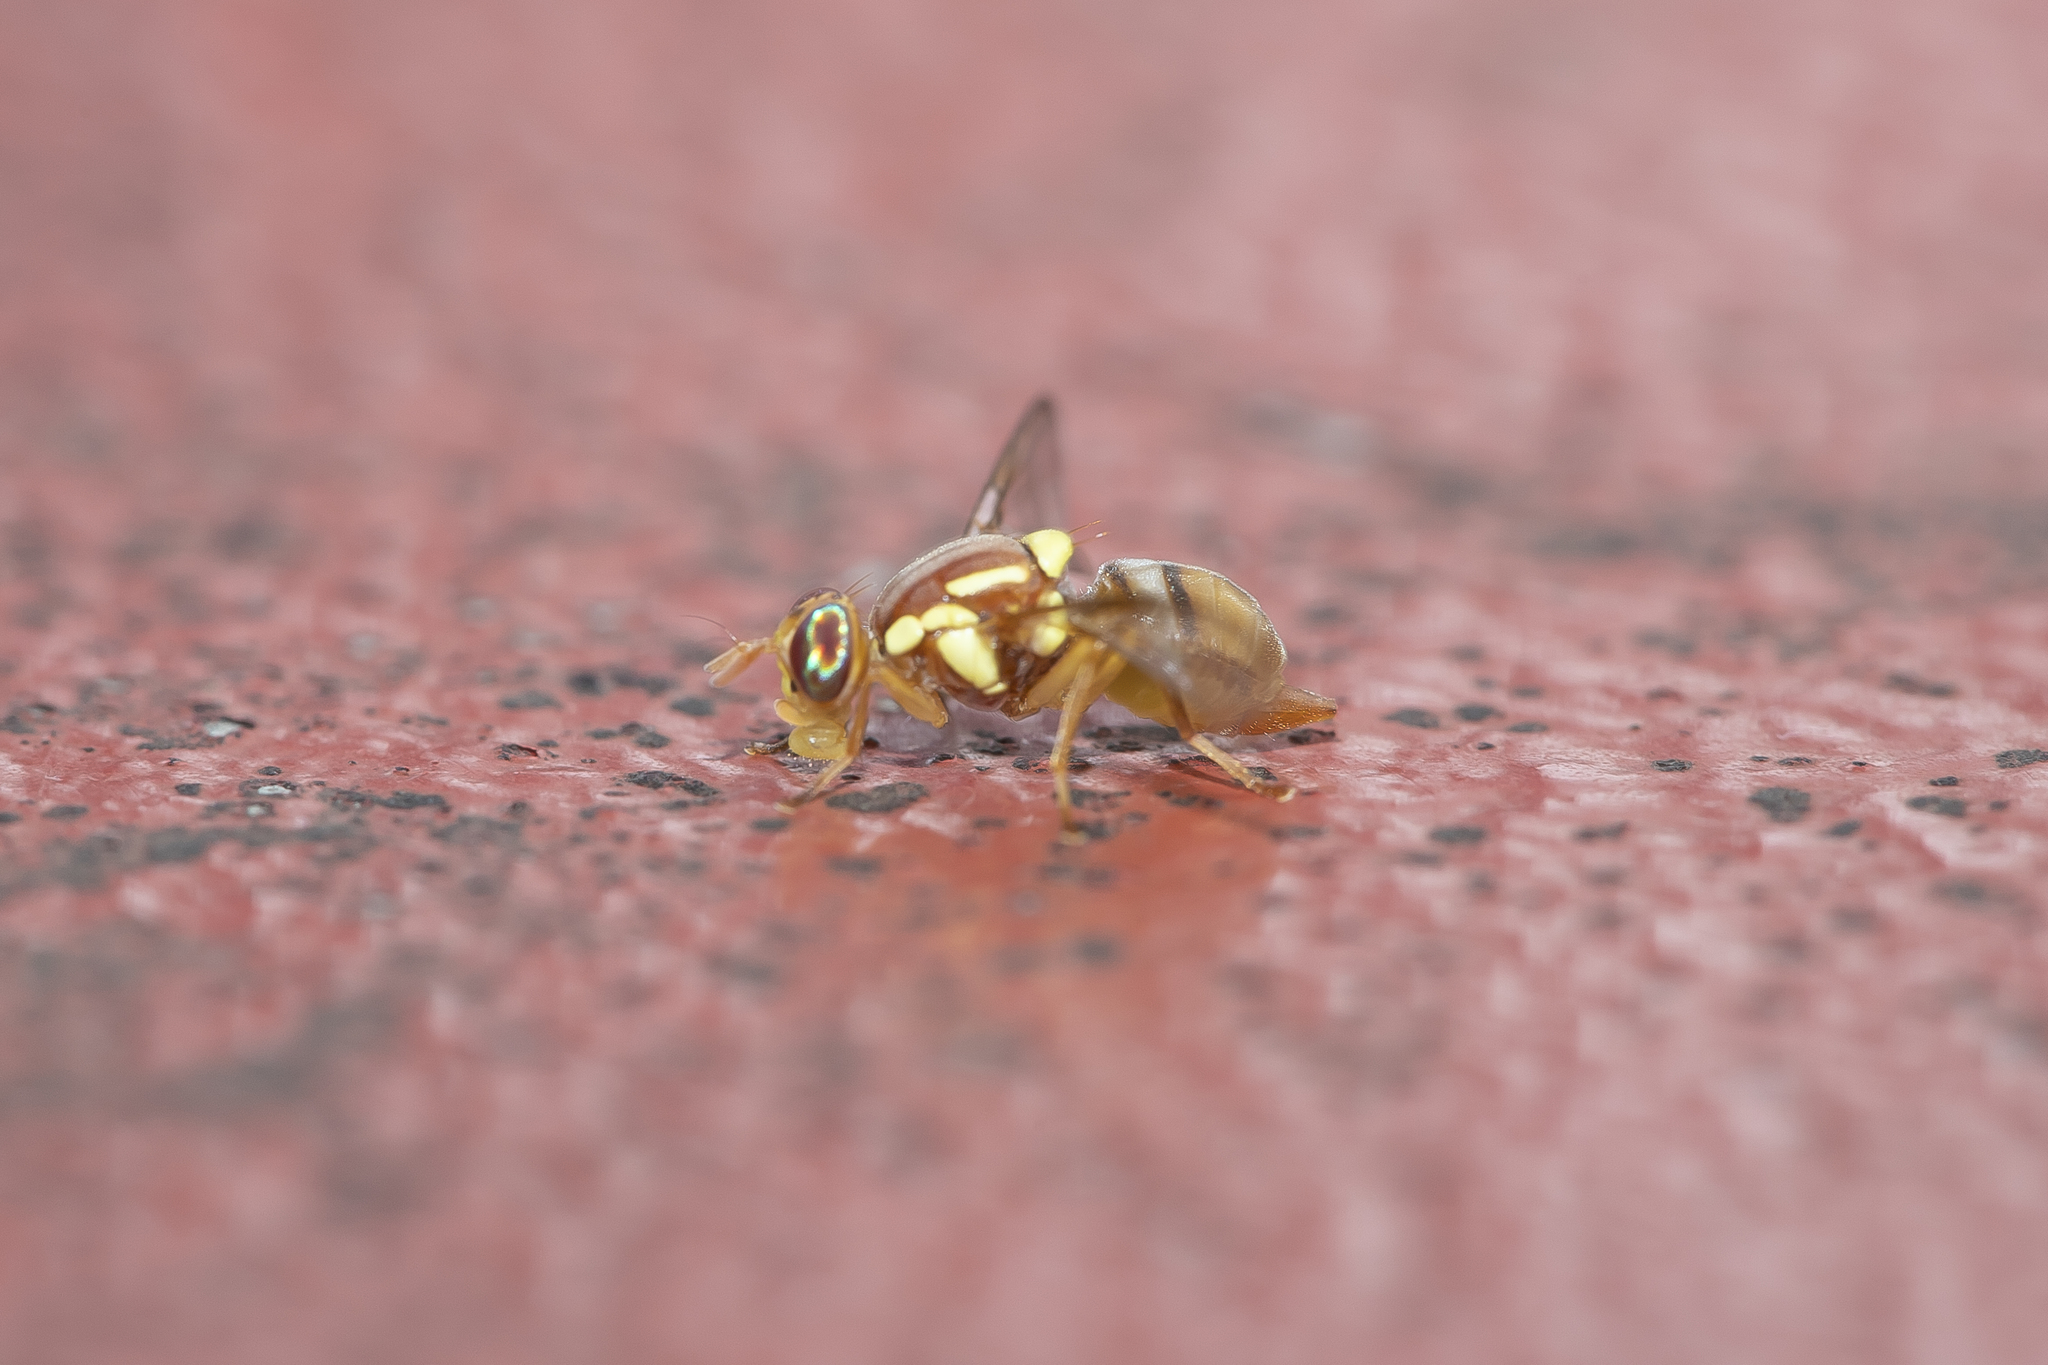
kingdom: Animalia
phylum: Arthropoda
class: Insecta
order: Diptera
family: Tephritidae
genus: Bactrocera
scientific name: Bactrocera jarvisi
